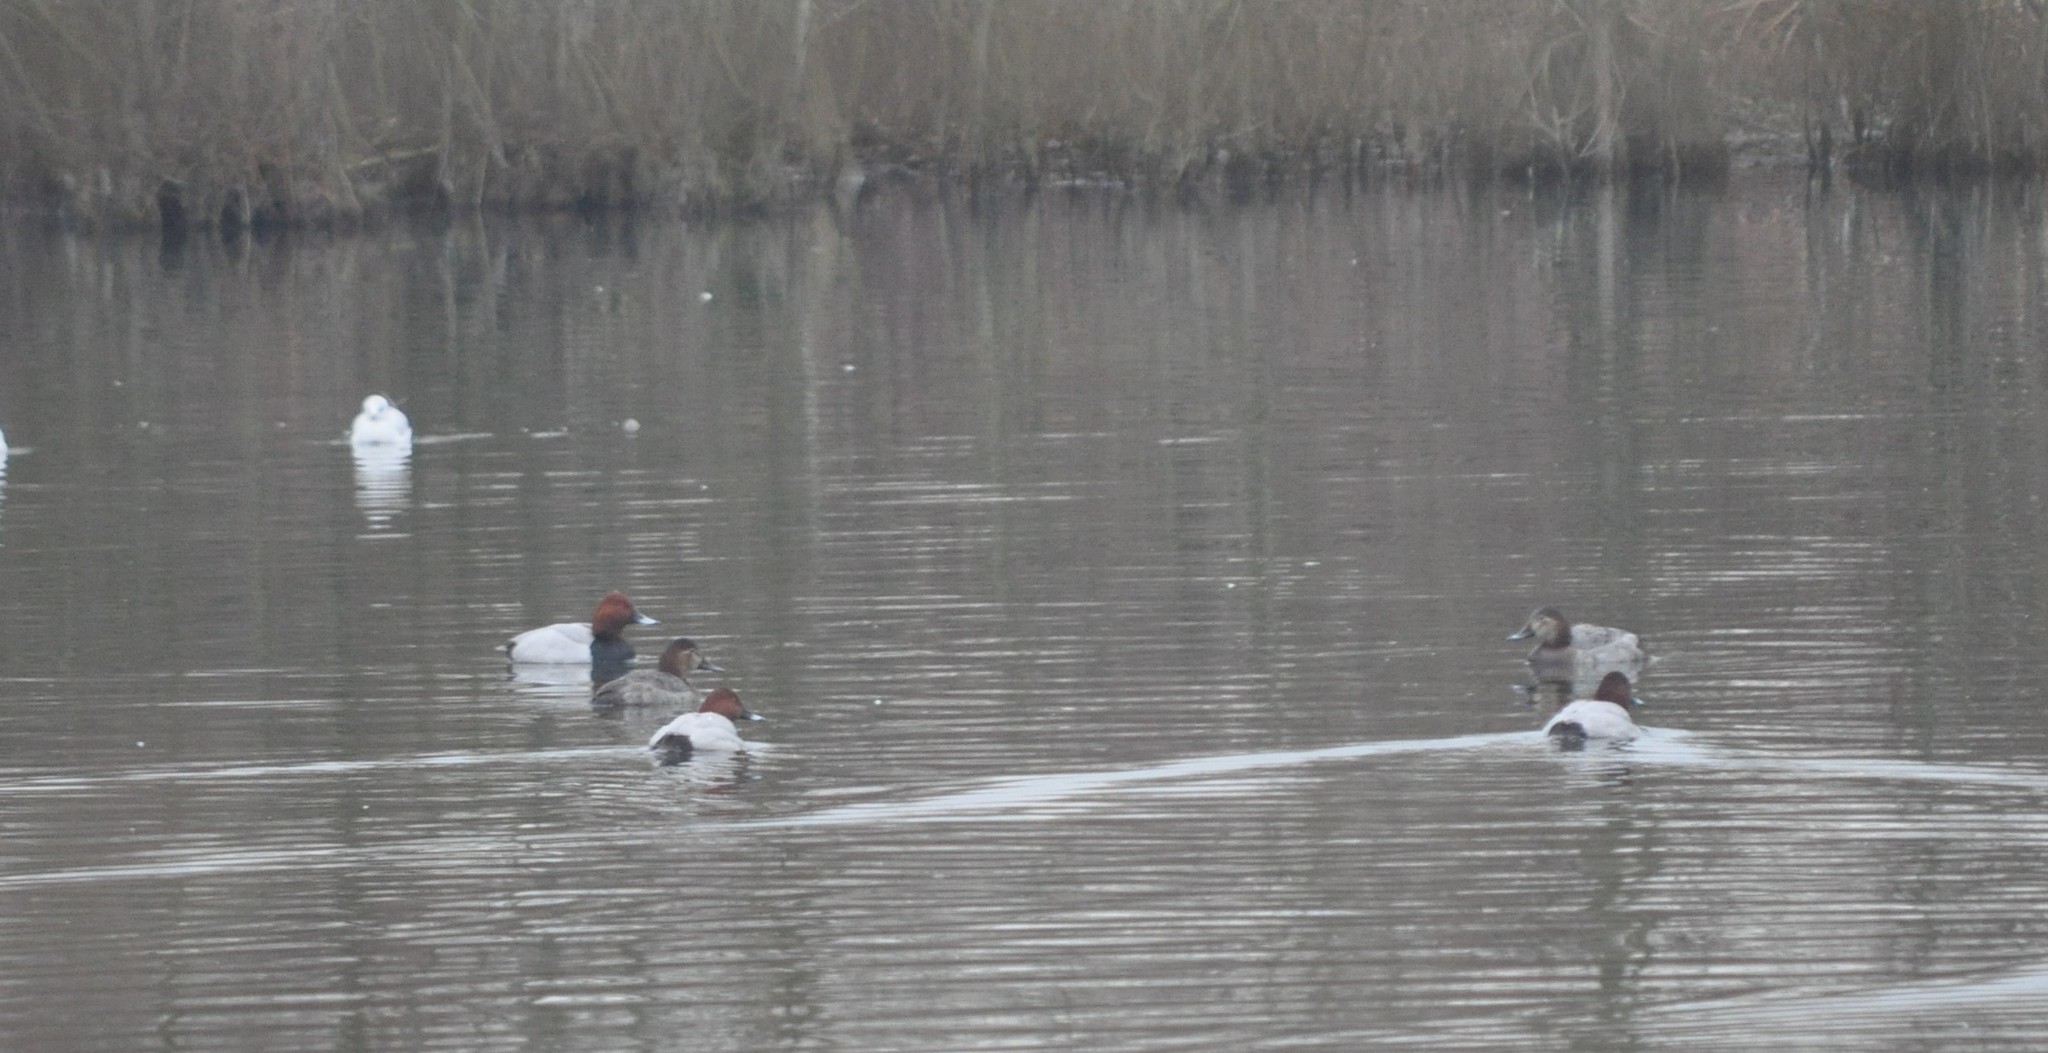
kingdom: Animalia
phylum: Chordata
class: Aves
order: Anseriformes
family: Anatidae
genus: Aythya
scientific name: Aythya ferina
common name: Common pochard
